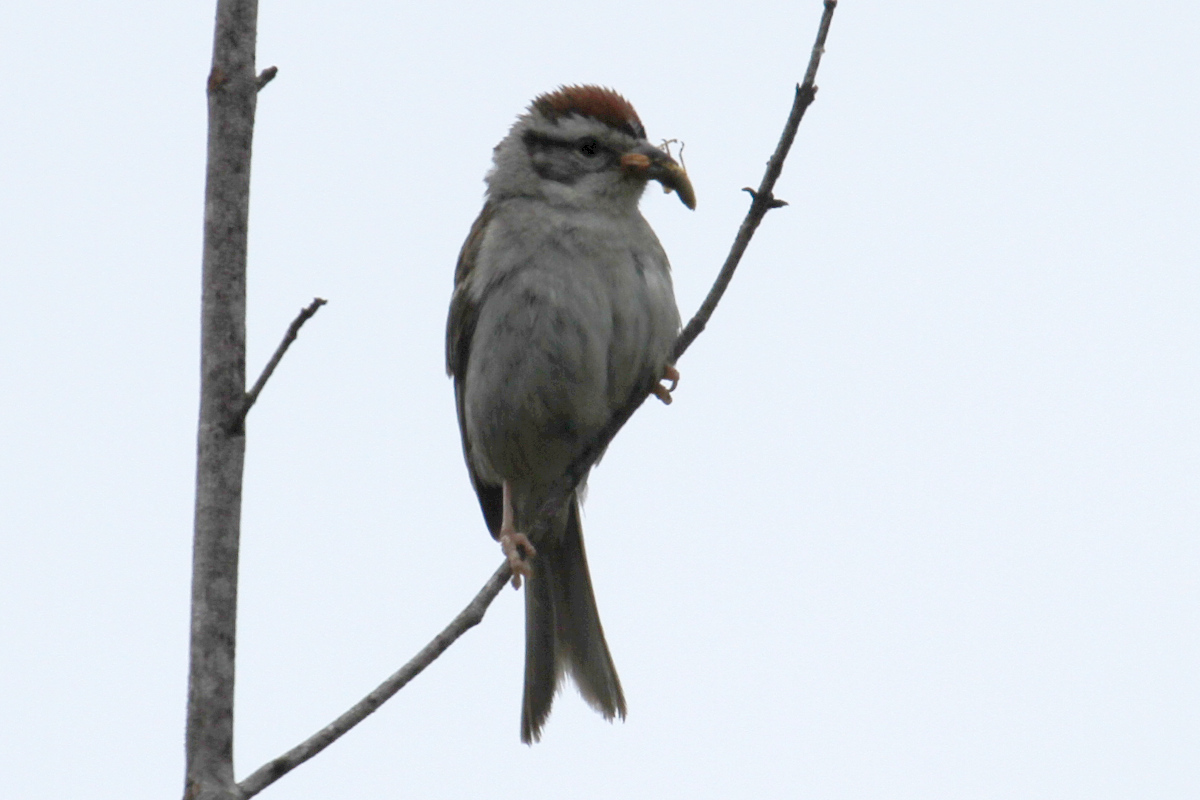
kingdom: Animalia
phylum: Chordata
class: Aves
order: Passeriformes
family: Passerellidae
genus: Spizella
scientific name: Spizella passerina
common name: Chipping sparrow
